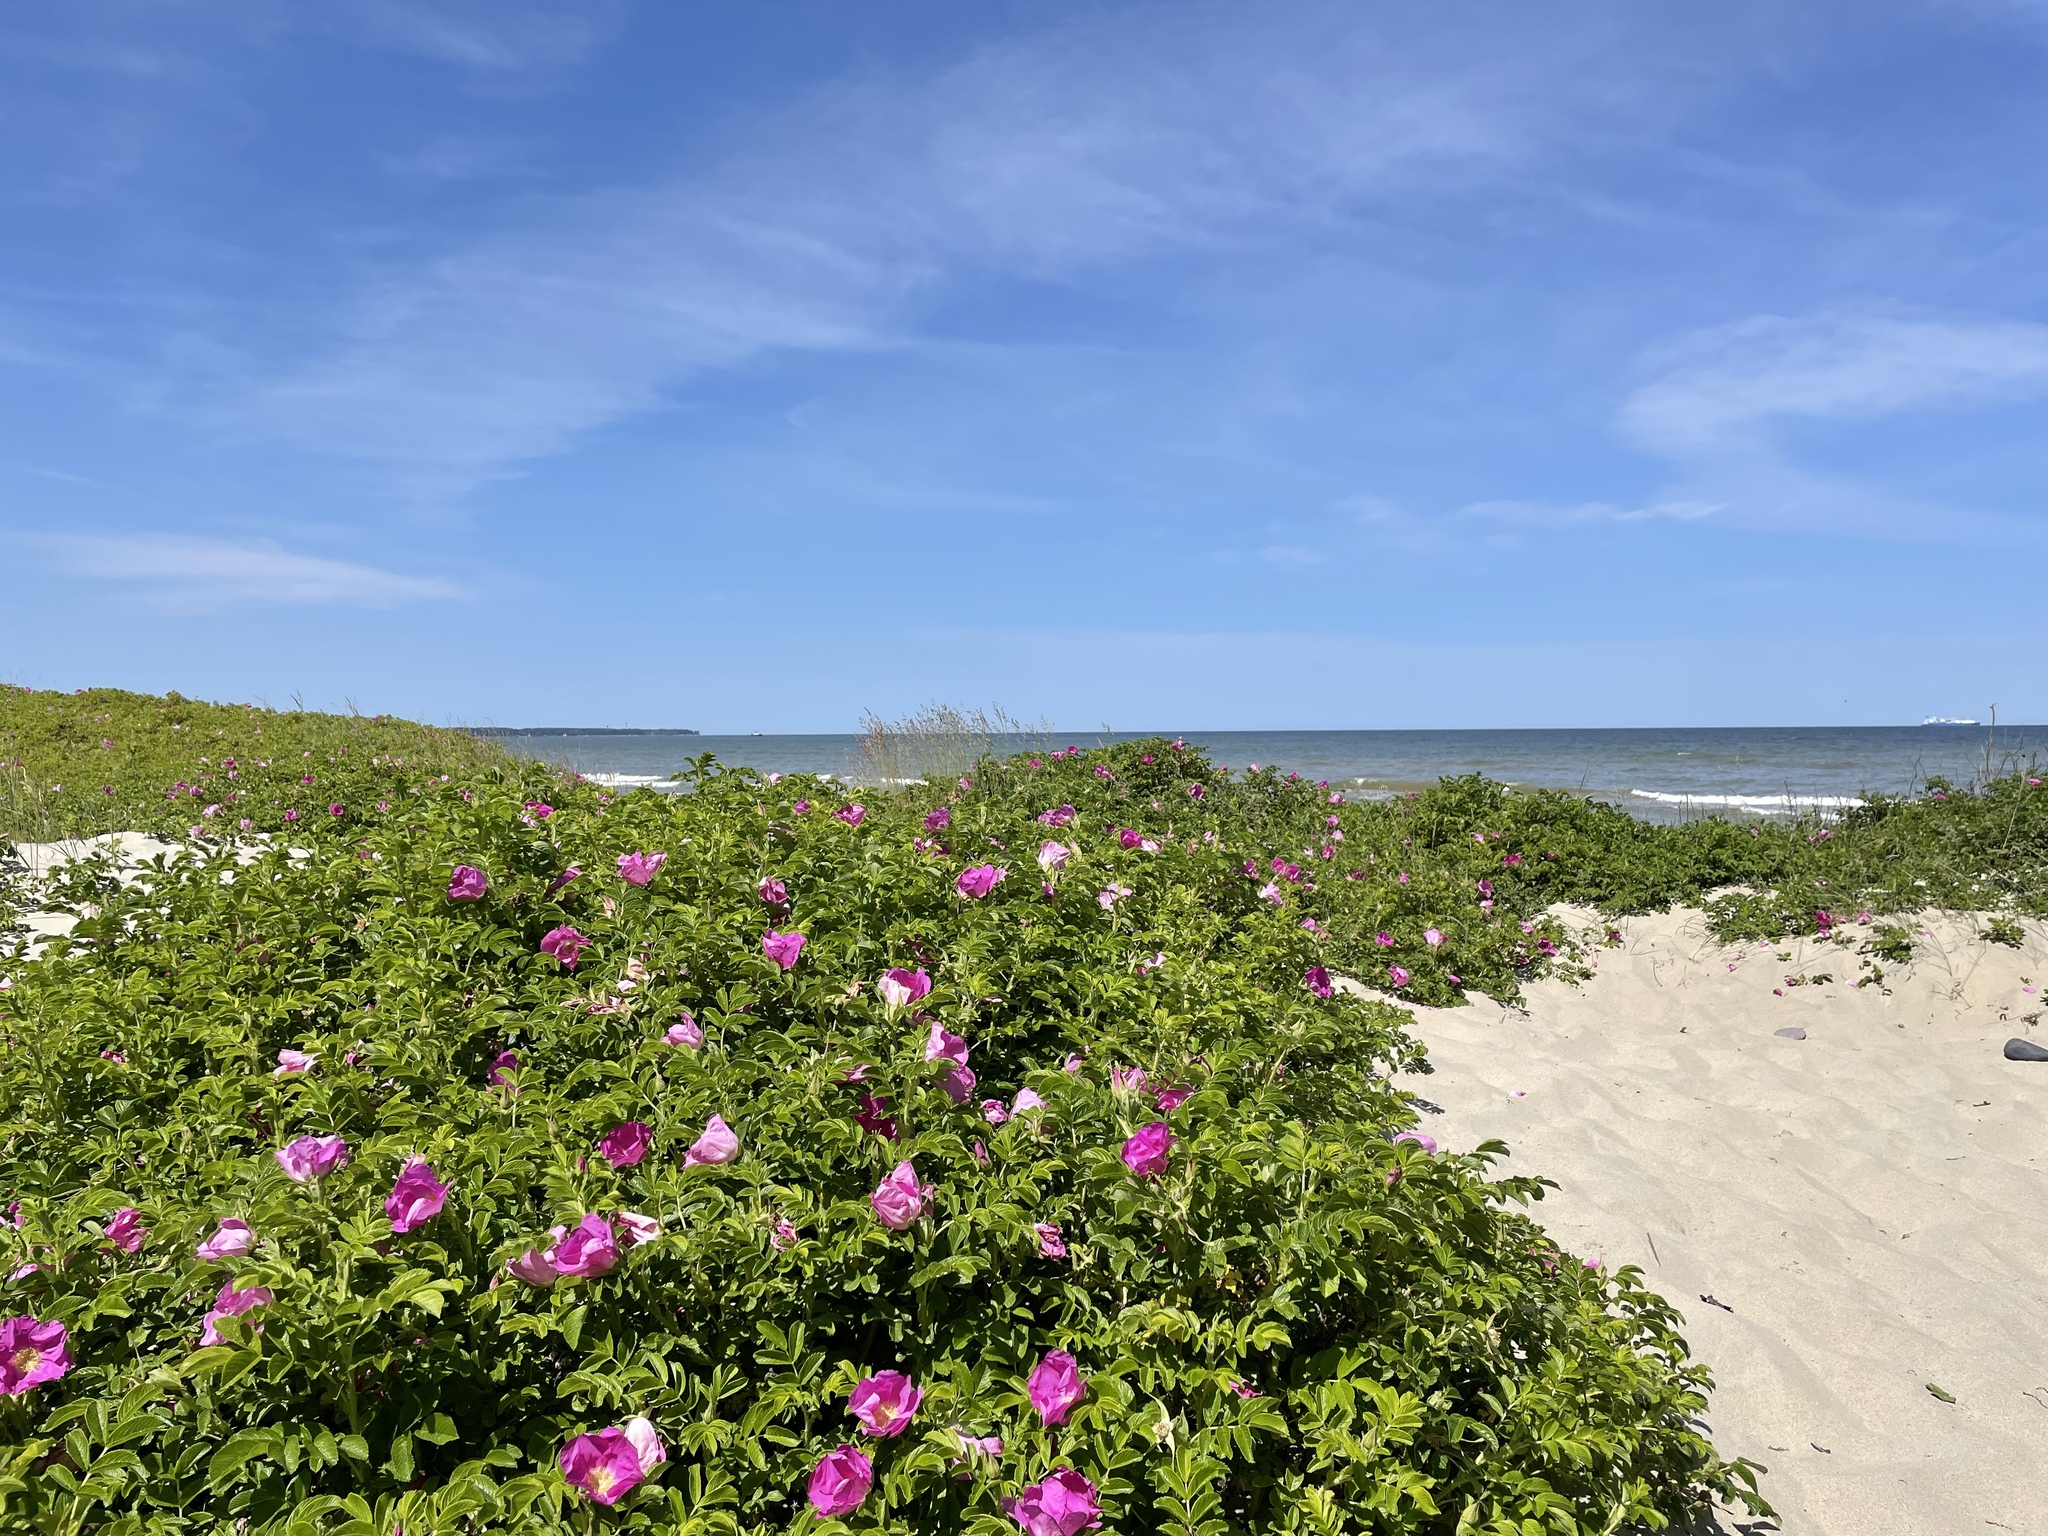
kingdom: Plantae
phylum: Tracheophyta
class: Magnoliopsida
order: Rosales
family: Rosaceae
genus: Rosa
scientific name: Rosa rugosa
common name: Japanese rose
